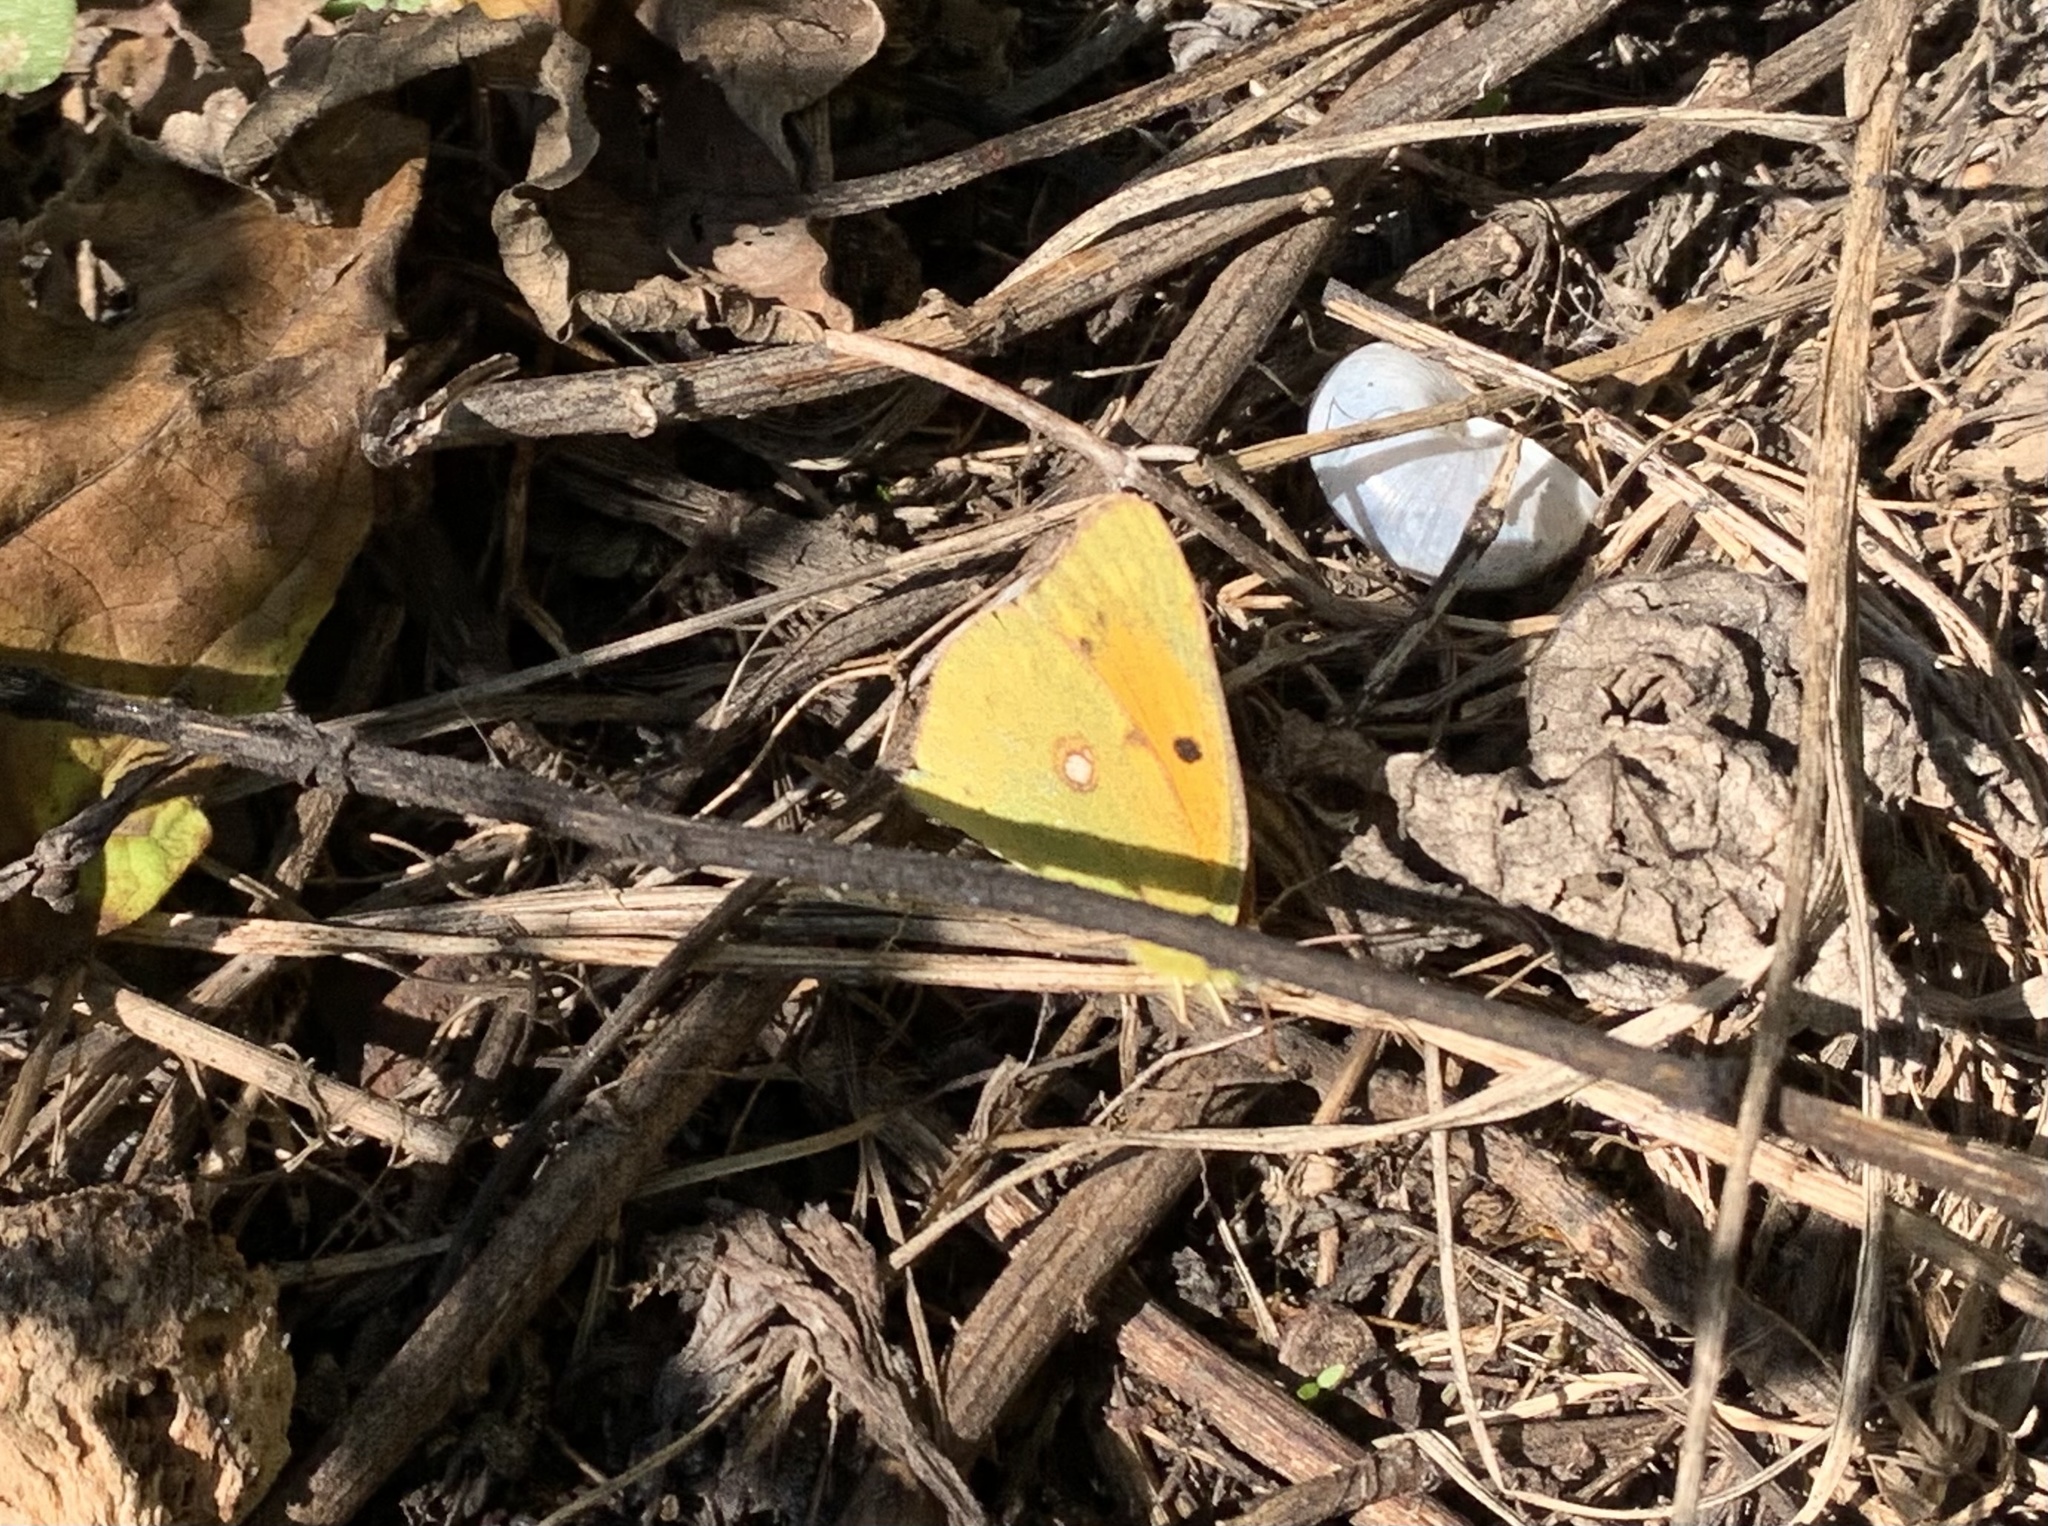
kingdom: Animalia
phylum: Arthropoda
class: Insecta
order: Lepidoptera
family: Pieridae
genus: Colias
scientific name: Colias croceus
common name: Clouded yellow
